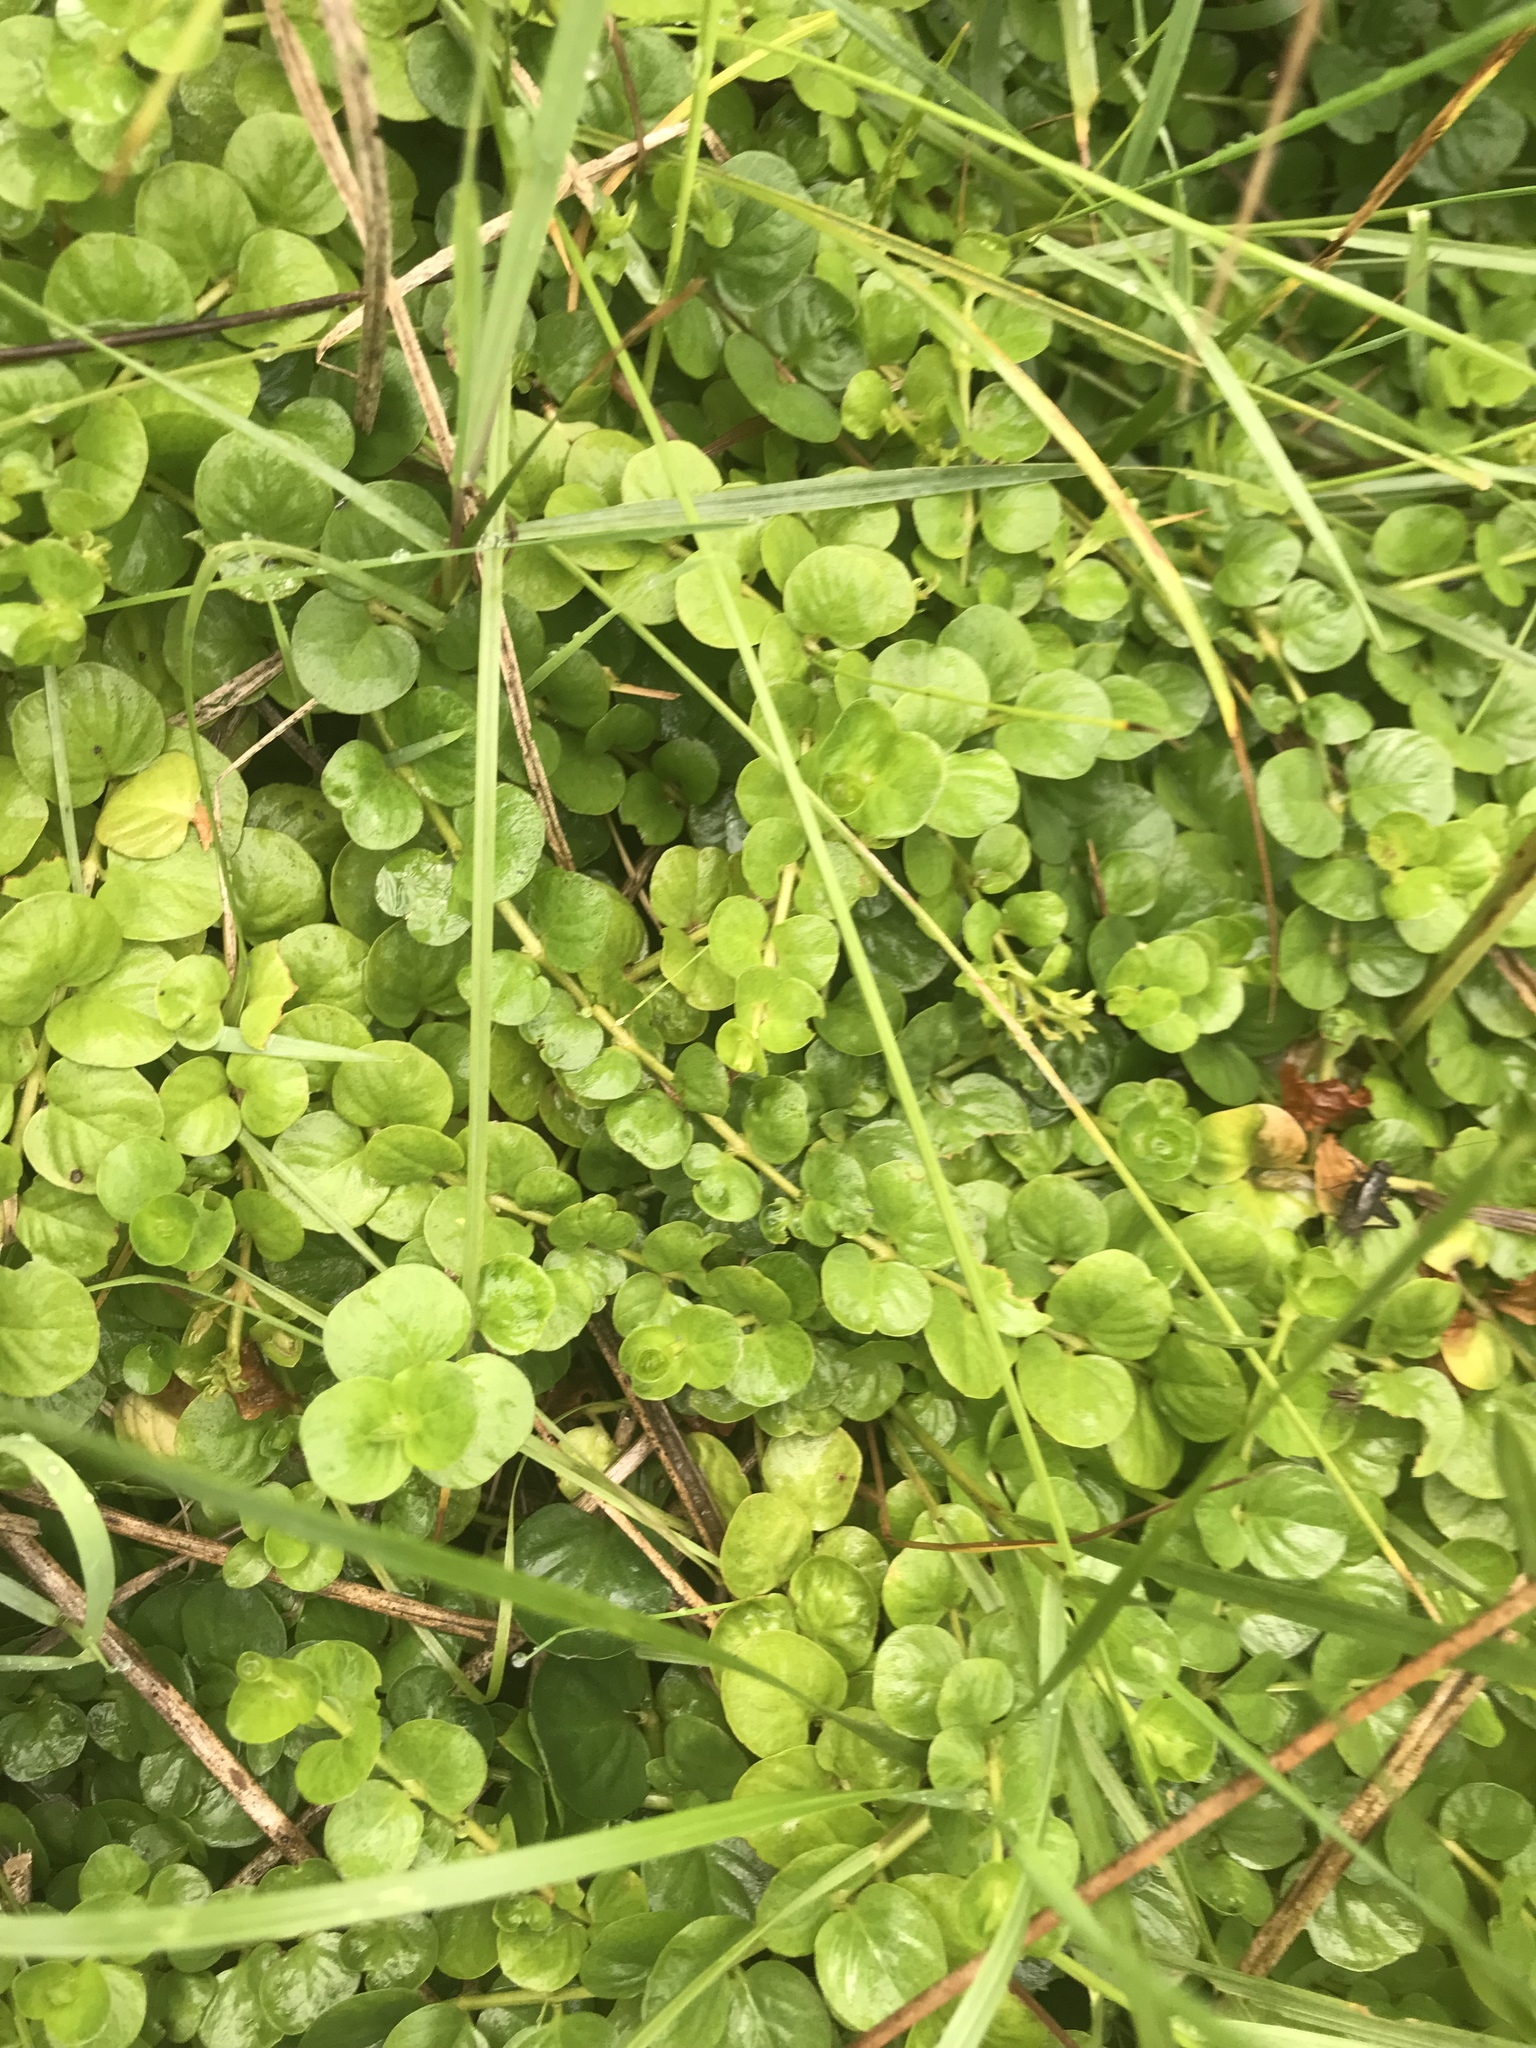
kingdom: Plantae
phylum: Tracheophyta
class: Magnoliopsida
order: Ericales
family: Primulaceae
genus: Lysimachia
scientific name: Lysimachia nummularia
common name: Moneywort
